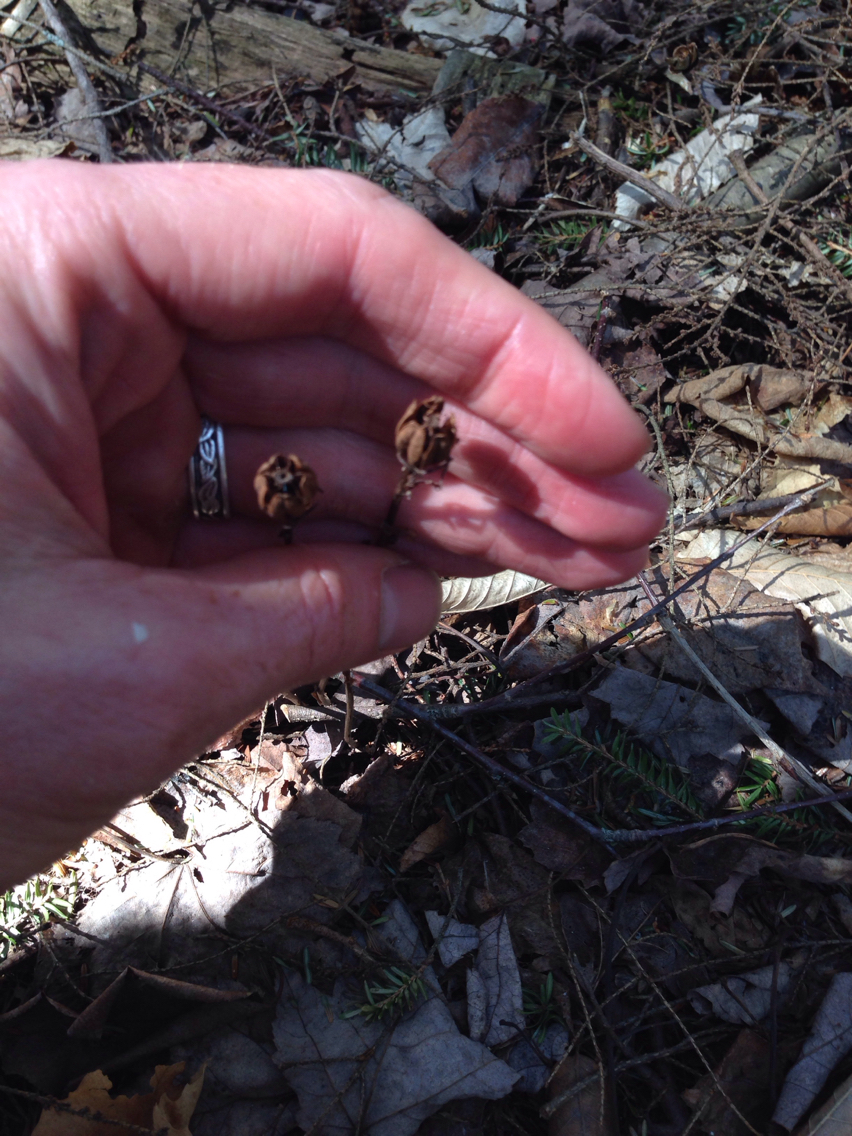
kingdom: Plantae
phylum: Tracheophyta
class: Magnoliopsida
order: Ericales
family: Ericaceae
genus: Monotropa
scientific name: Monotropa uniflora
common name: Convulsion root
